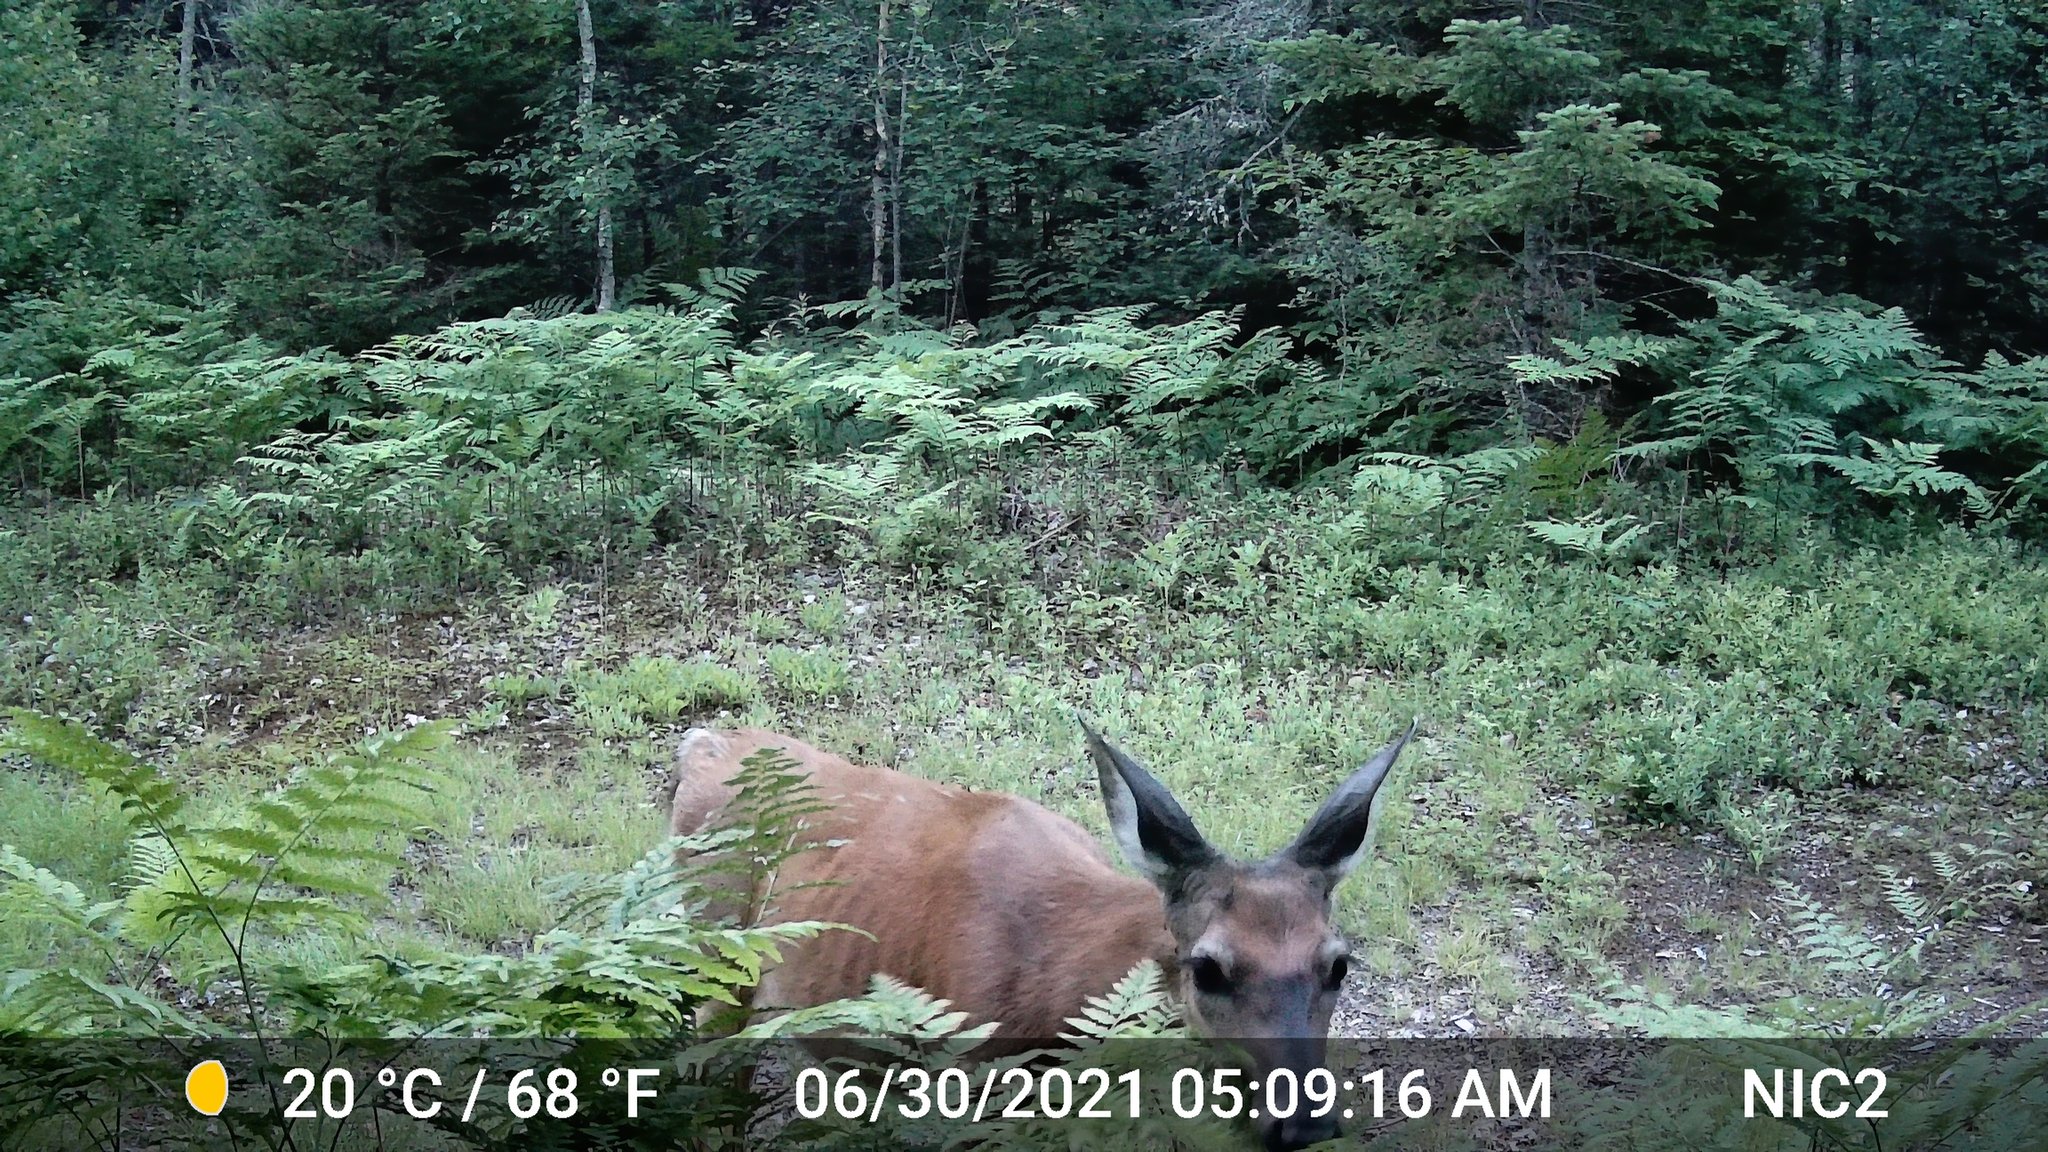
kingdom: Animalia
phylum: Chordata
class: Mammalia
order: Artiodactyla
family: Cervidae
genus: Odocoileus
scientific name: Odocoileus virginianus
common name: White-tailed deer
